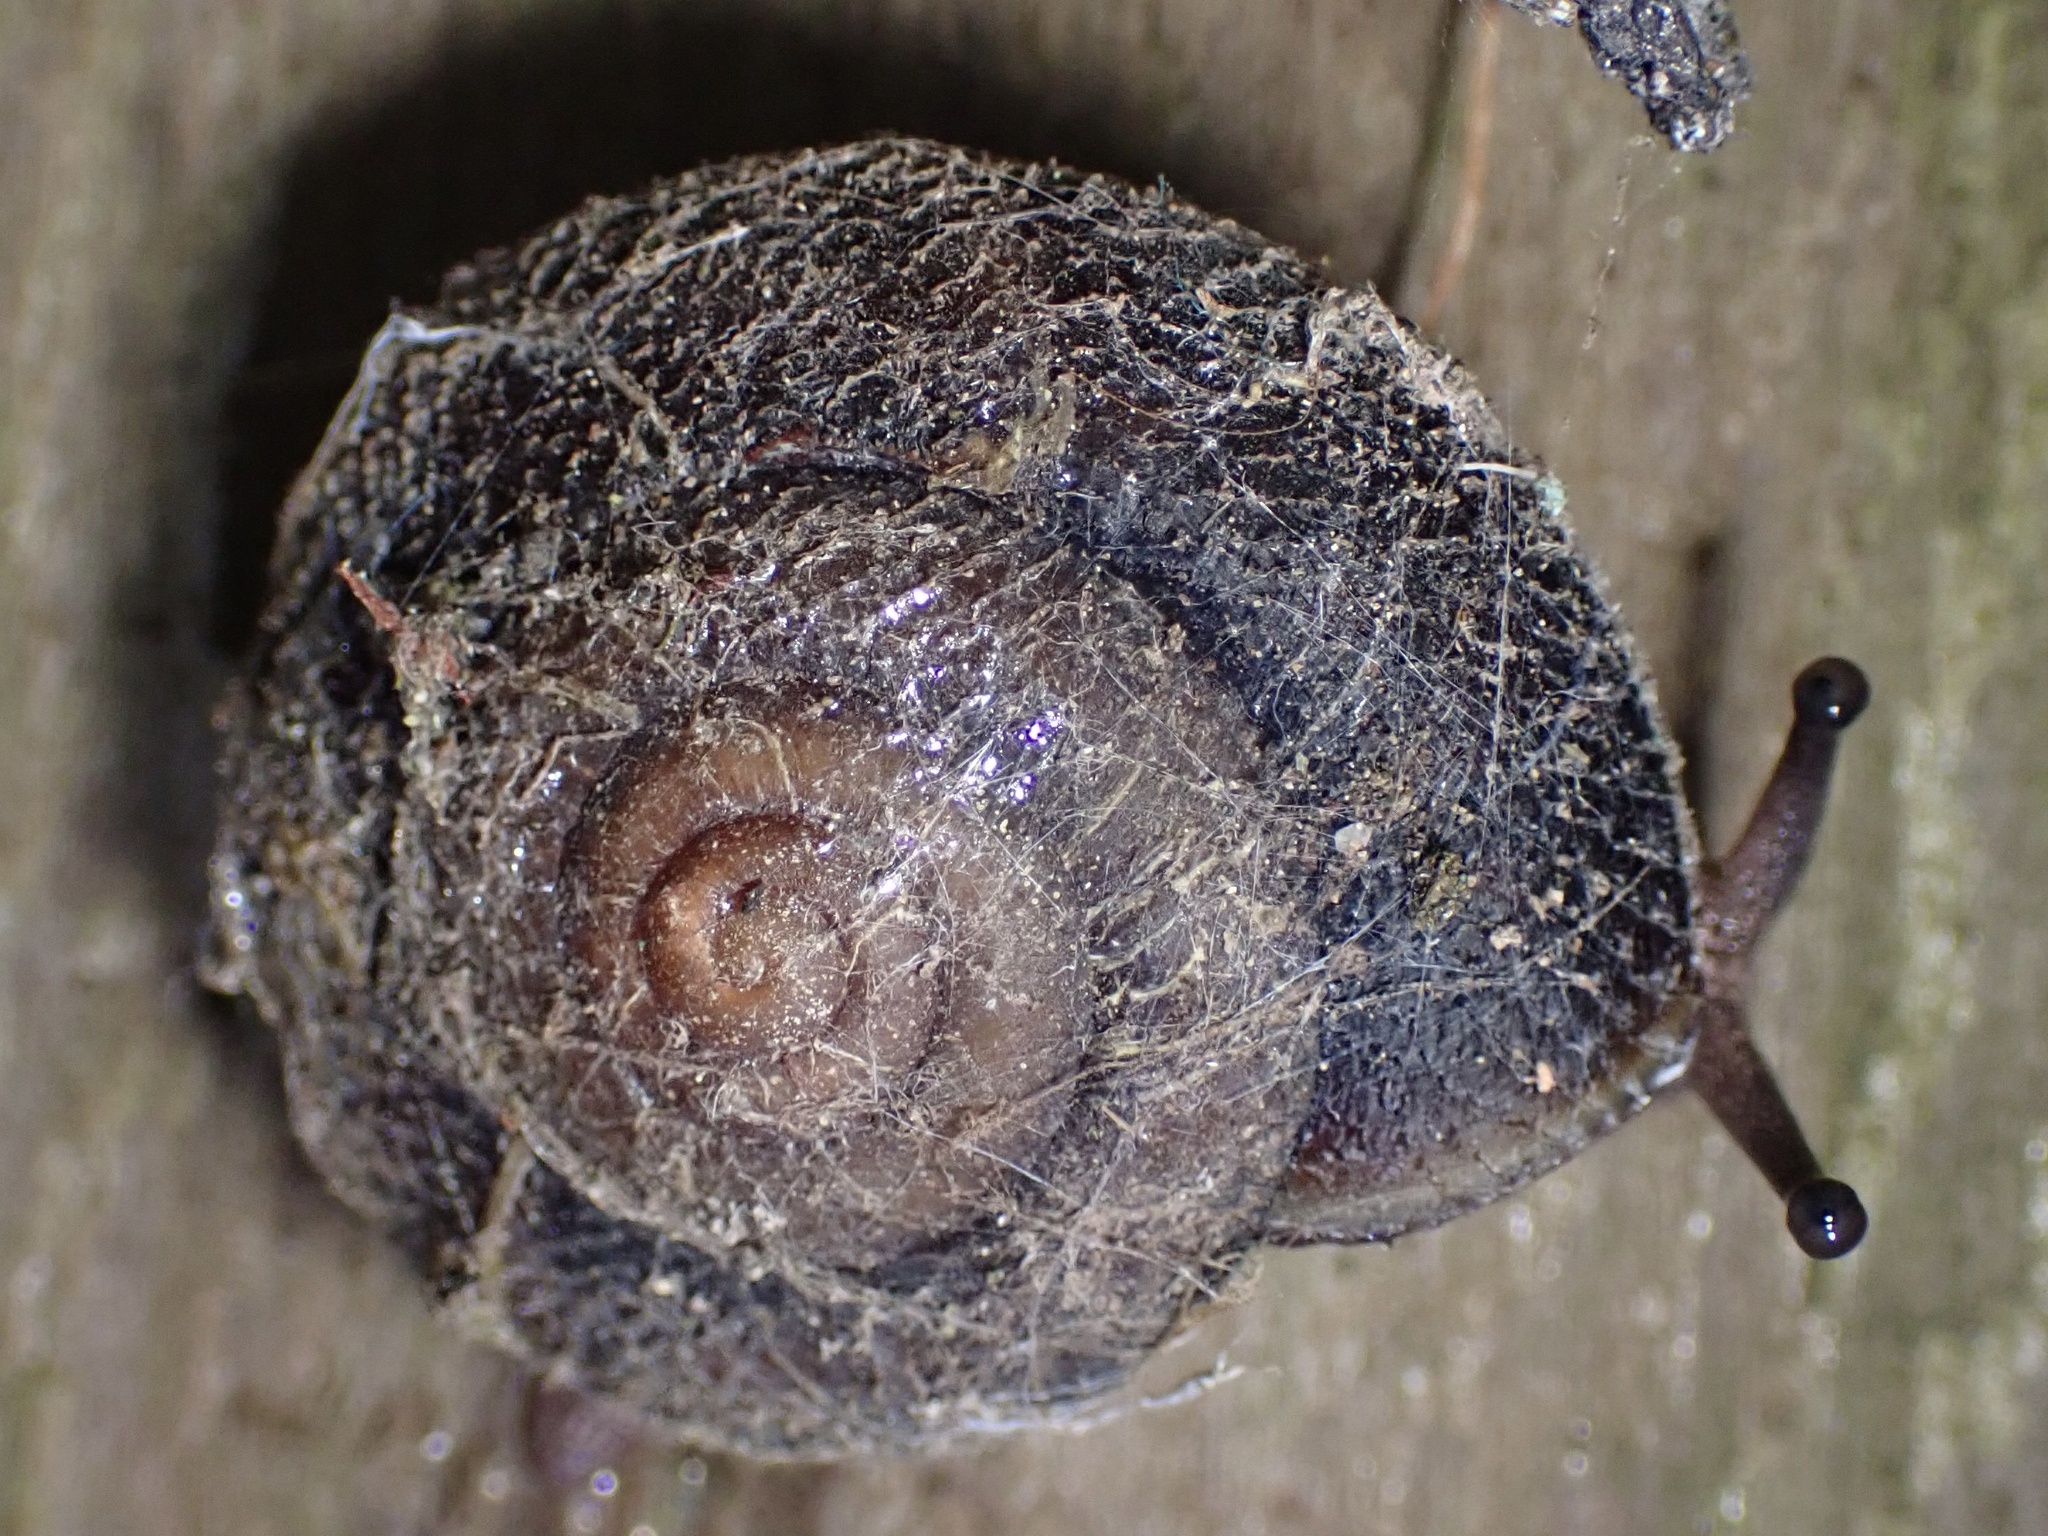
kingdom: Animalia
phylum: Mollusca
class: Gastropoda
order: Stylommatophora
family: Xanthonychidae
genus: Monadenia
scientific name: Monadenia infumata
